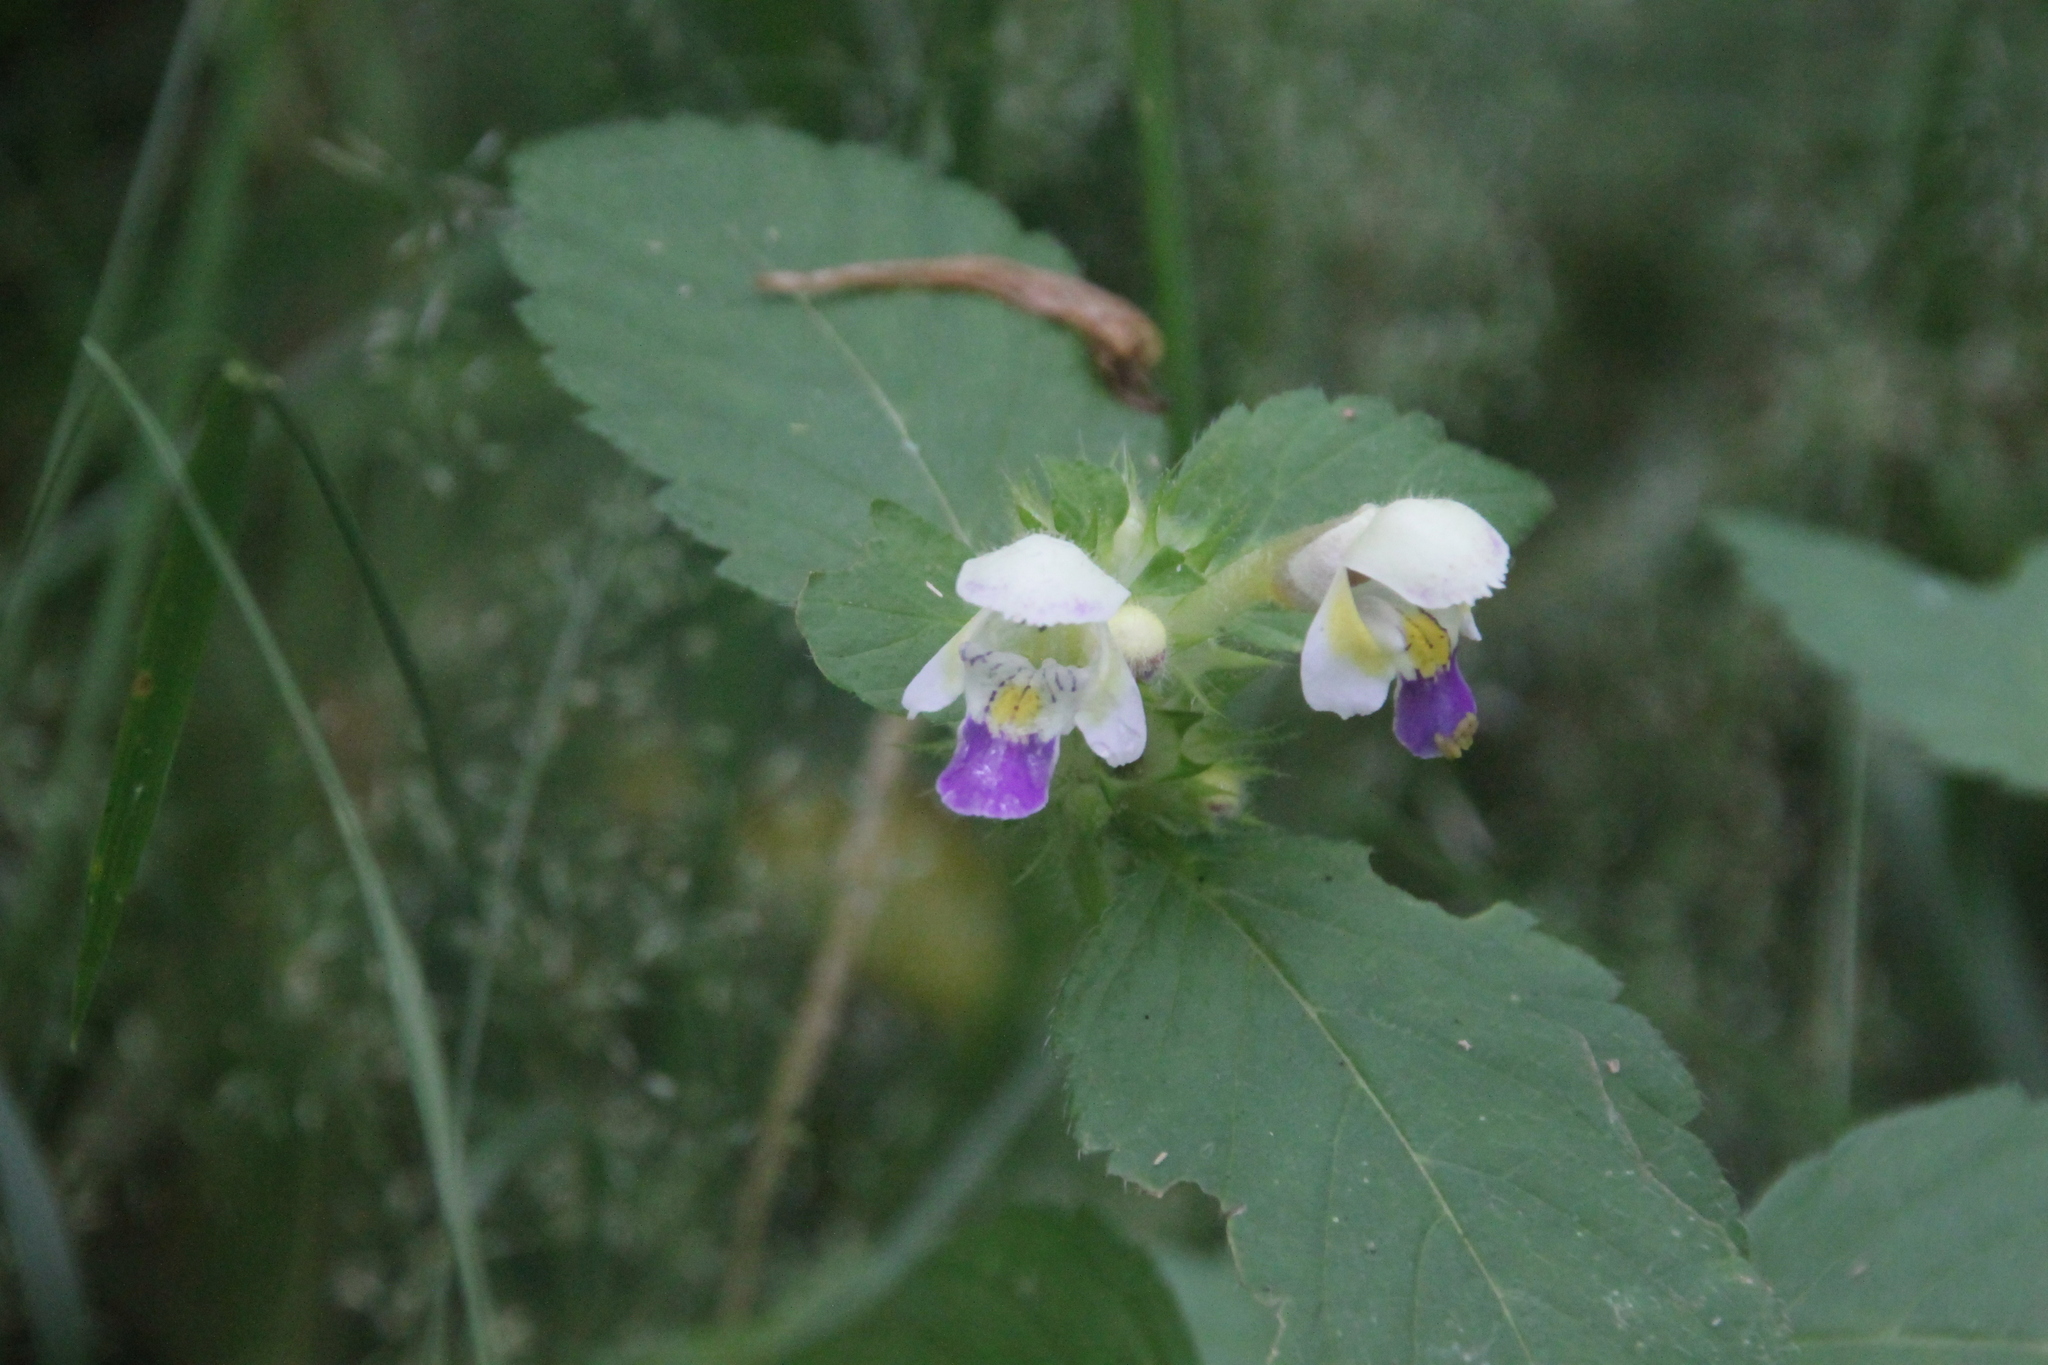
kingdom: Plantae
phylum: Tracheophyta
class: Magnoliopsida
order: Lamiales
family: Lamiaceae
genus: Galeopsis
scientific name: Galeopsis speciosa
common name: Large-flowered hemp-nettle
